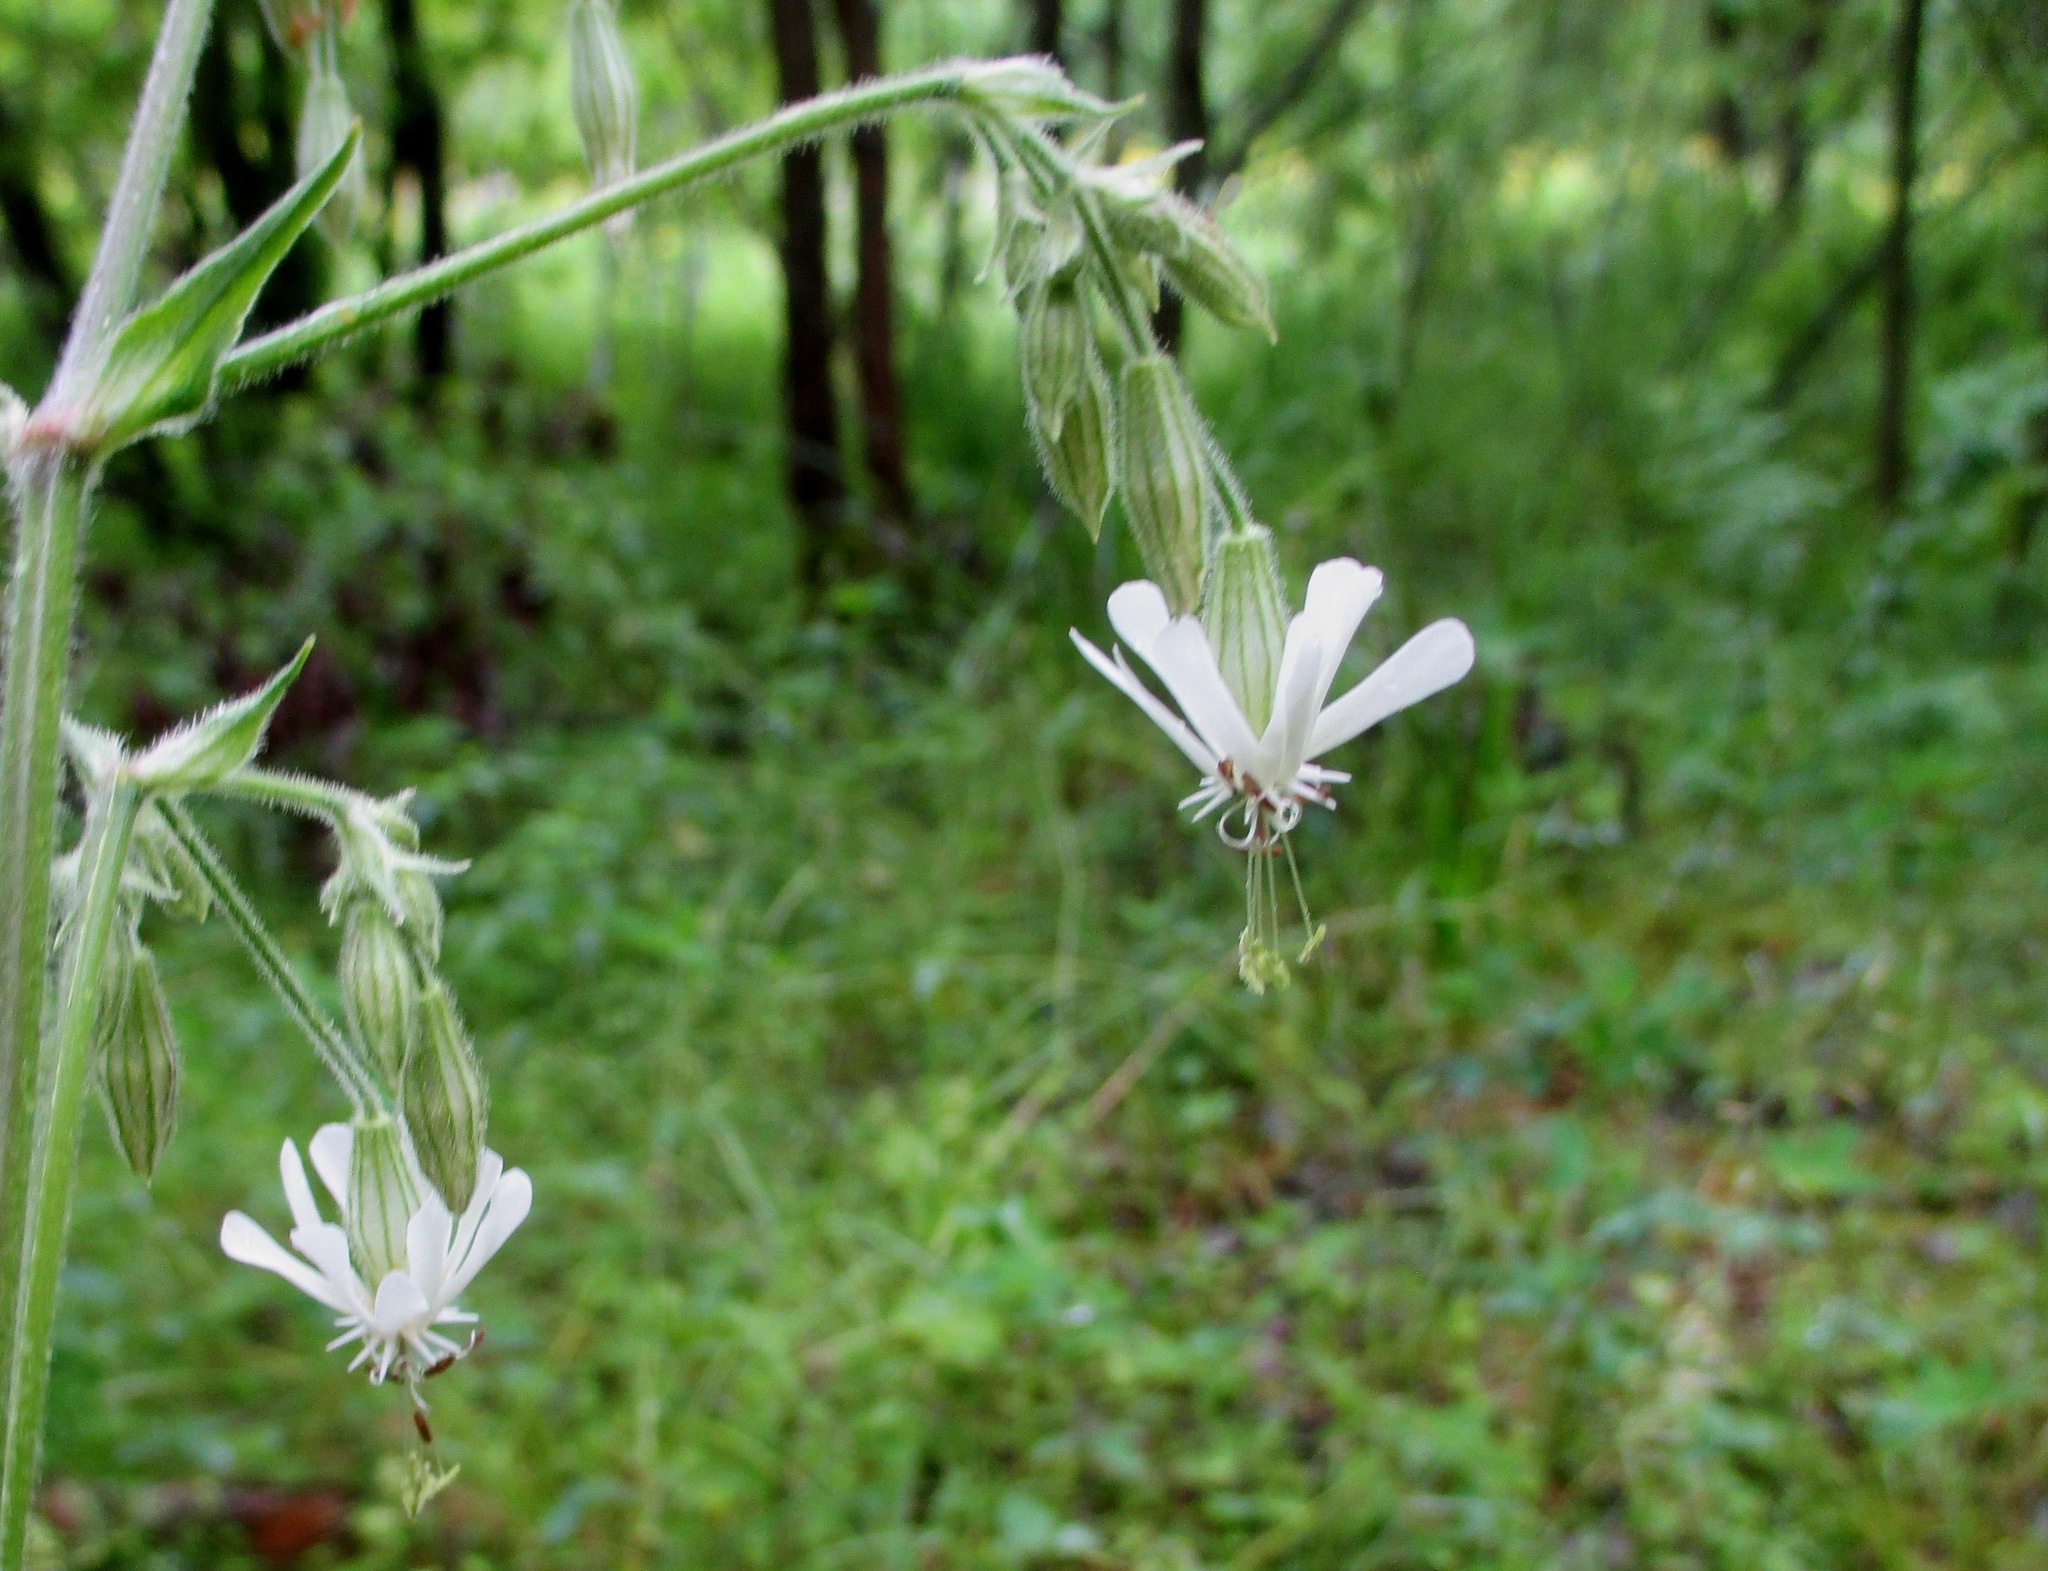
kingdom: Plantae
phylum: Tracheophyta
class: Magnoliopsida
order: Caryophyllales
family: Caryophyllaceae
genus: Silene
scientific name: Silene nutans
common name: Nottingham catchfly
